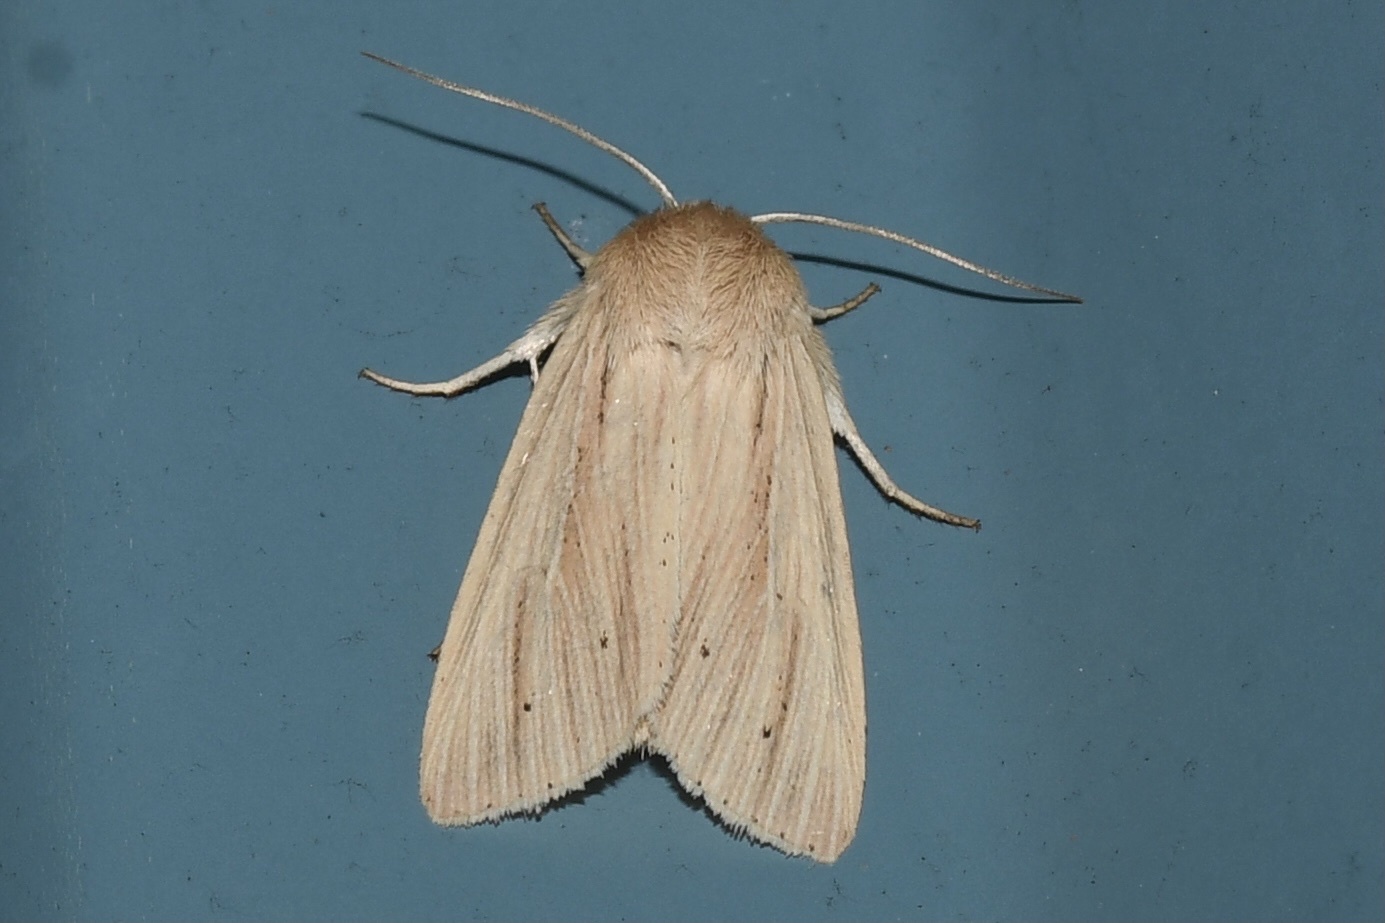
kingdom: Animalia
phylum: Arthropoda
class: Insecta
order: Lepidoptera
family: Noctuidae
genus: Mythimna
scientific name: Mythimna oxygala
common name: Lesser wainscot
